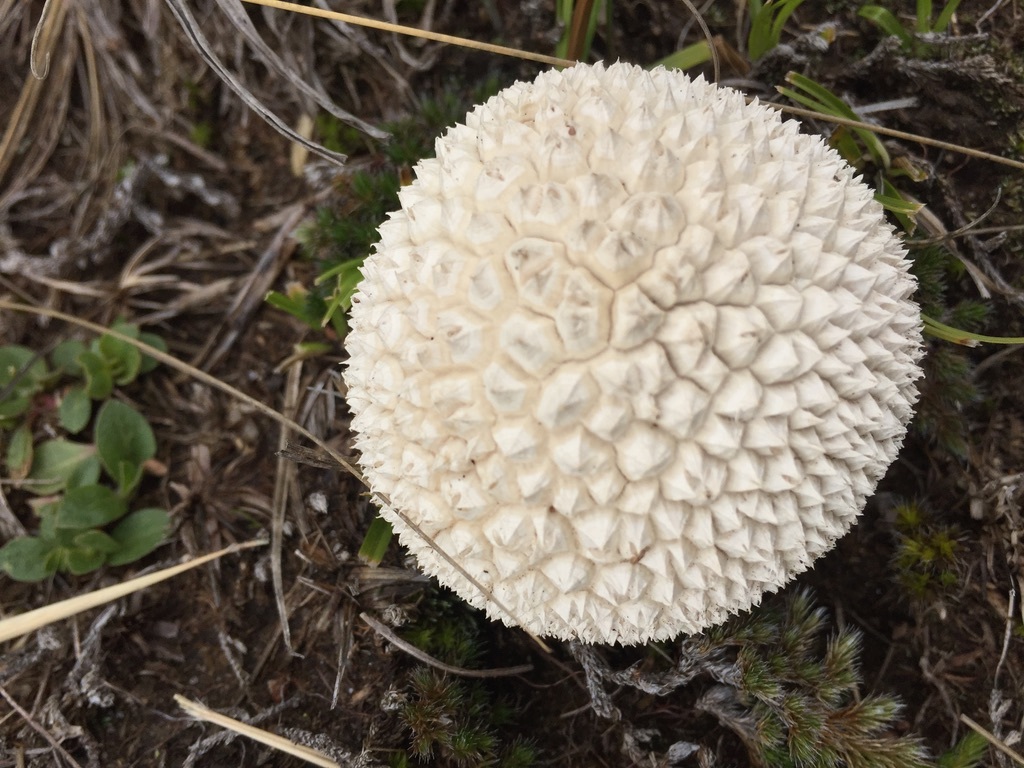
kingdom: Fungi
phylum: Basidiomycota
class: Agaricomycetes
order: Agaricales
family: Agaricaceae
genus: Lycoperdon
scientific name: Lycoperdon marginatum
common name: Peeling puffball
